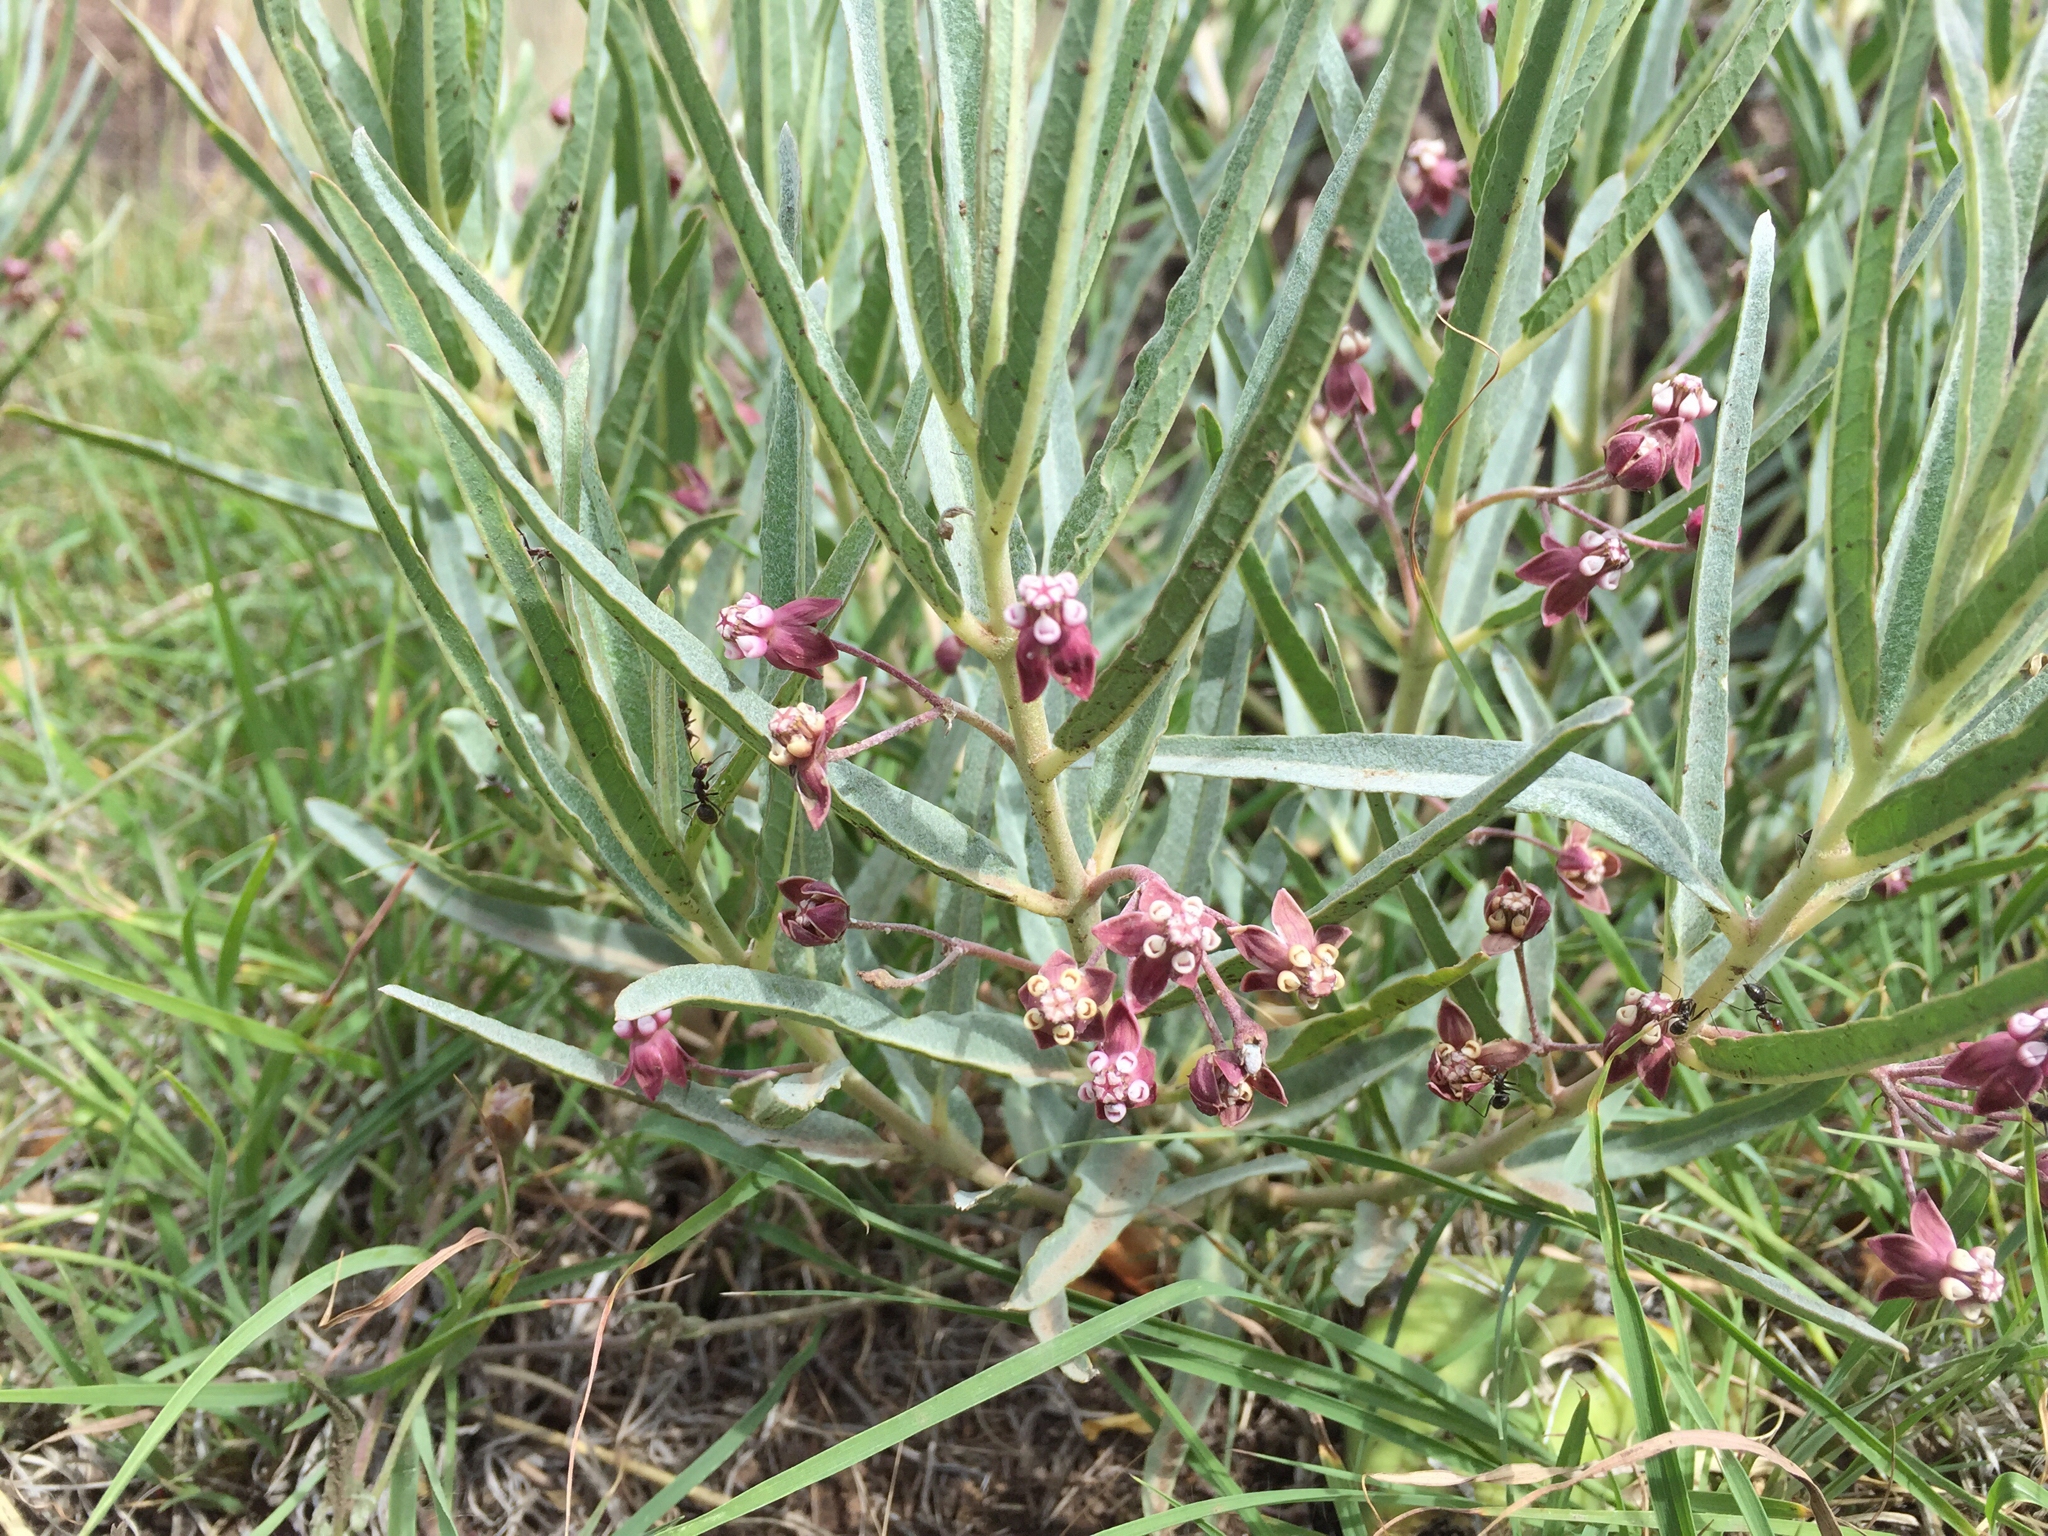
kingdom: Plantae
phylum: Tracheophyta
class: Magnoliopsida
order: Gentianales
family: Apocynaceae
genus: Asclepias
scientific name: Asclepias brachystephana
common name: Shortcrown milkweed
